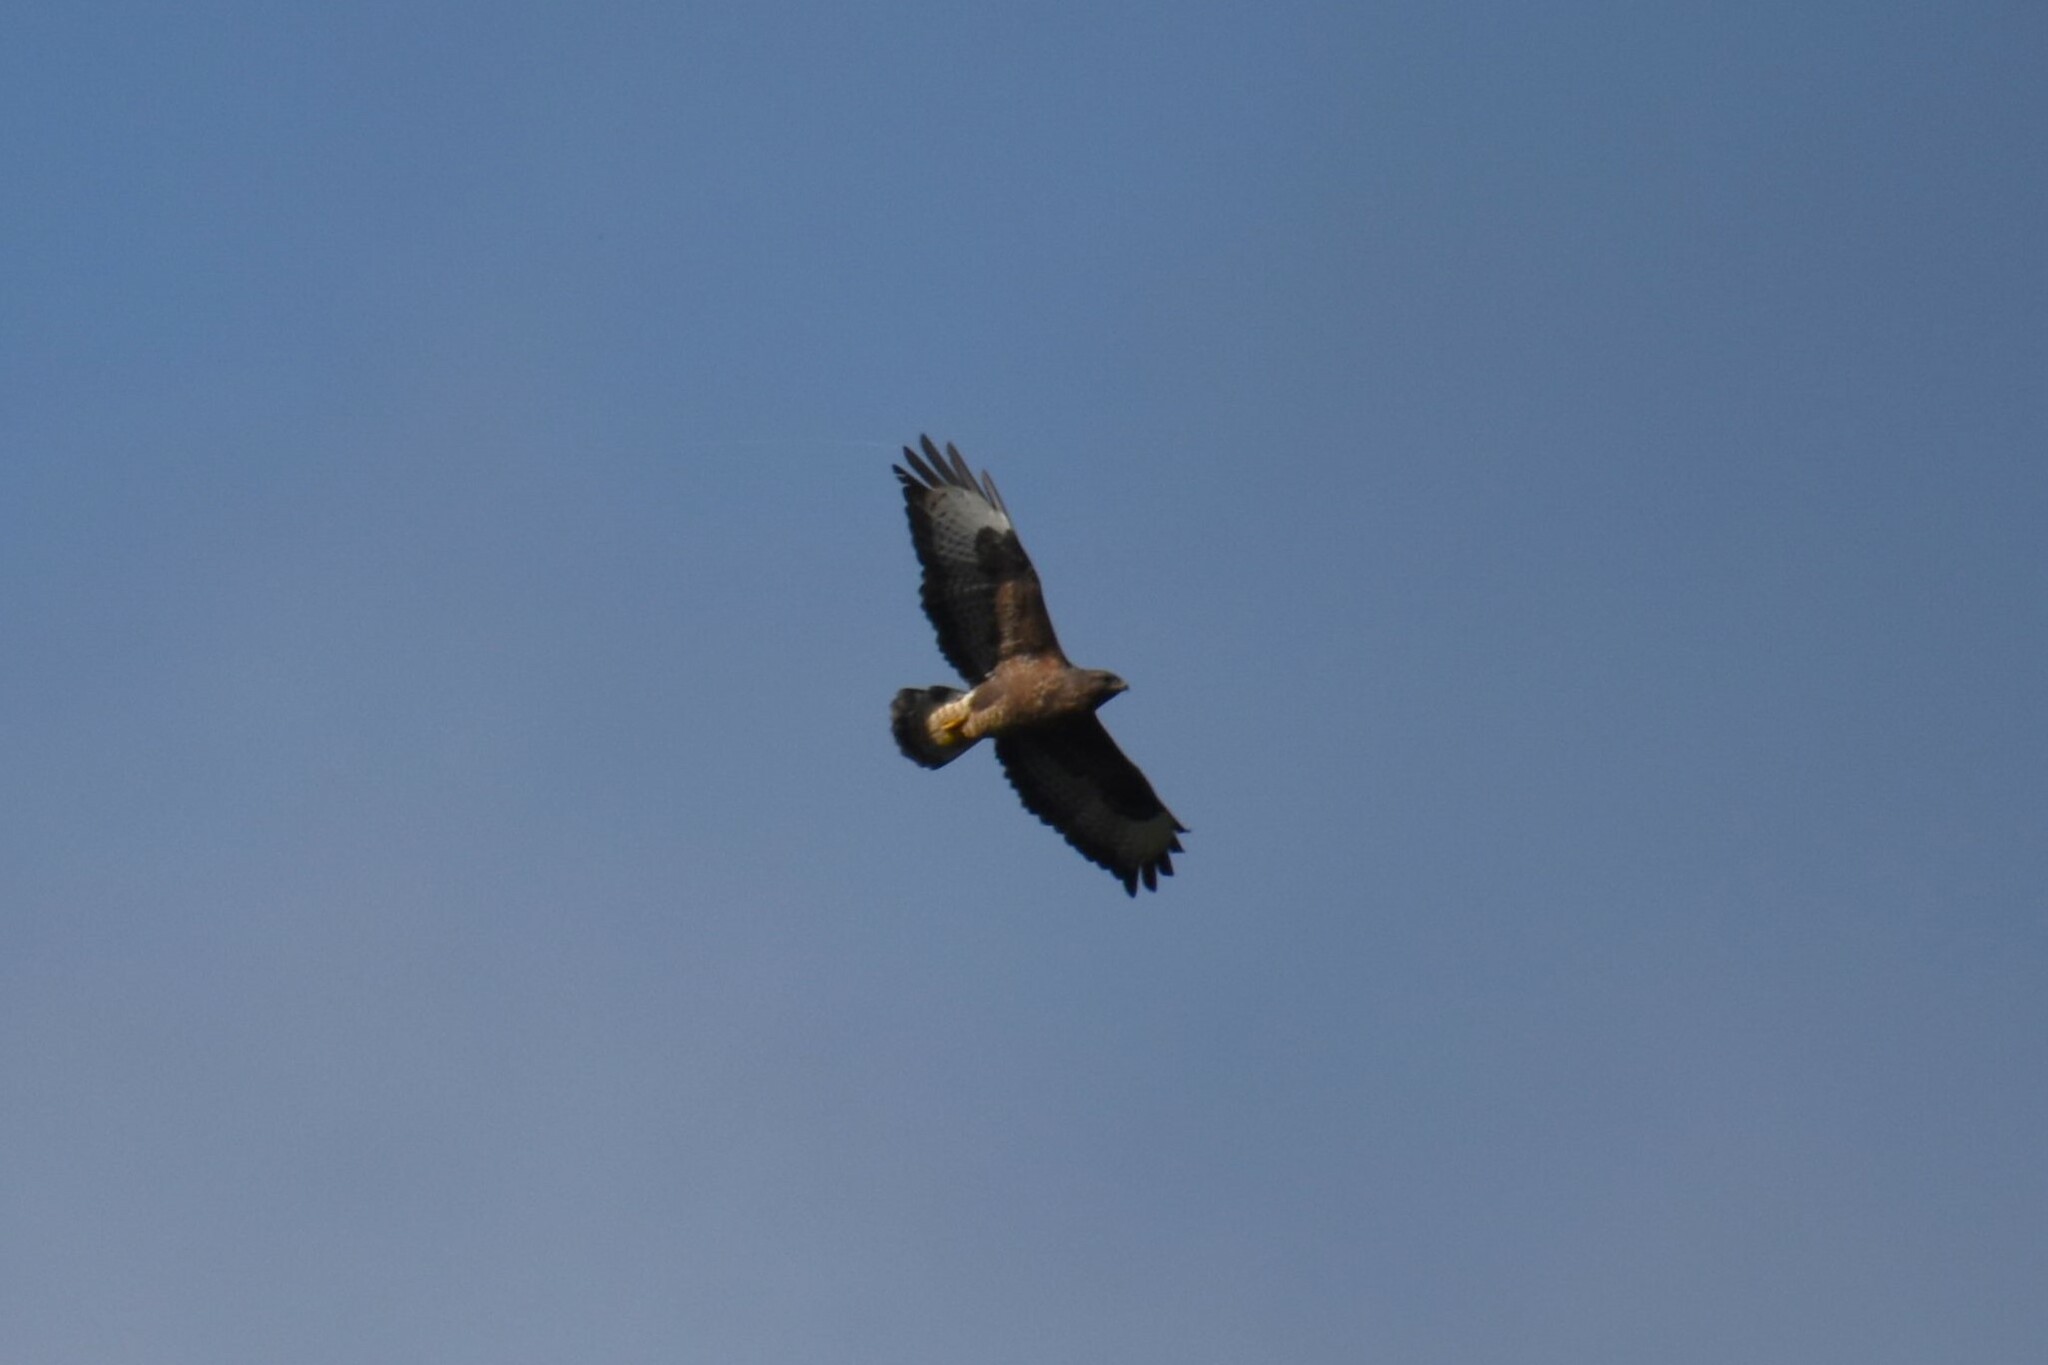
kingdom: Animalia
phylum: Chordata
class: Aves
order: Accipitriformes
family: Accipitridae
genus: Buteo
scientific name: Buteo buteo
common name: Common buzzard
